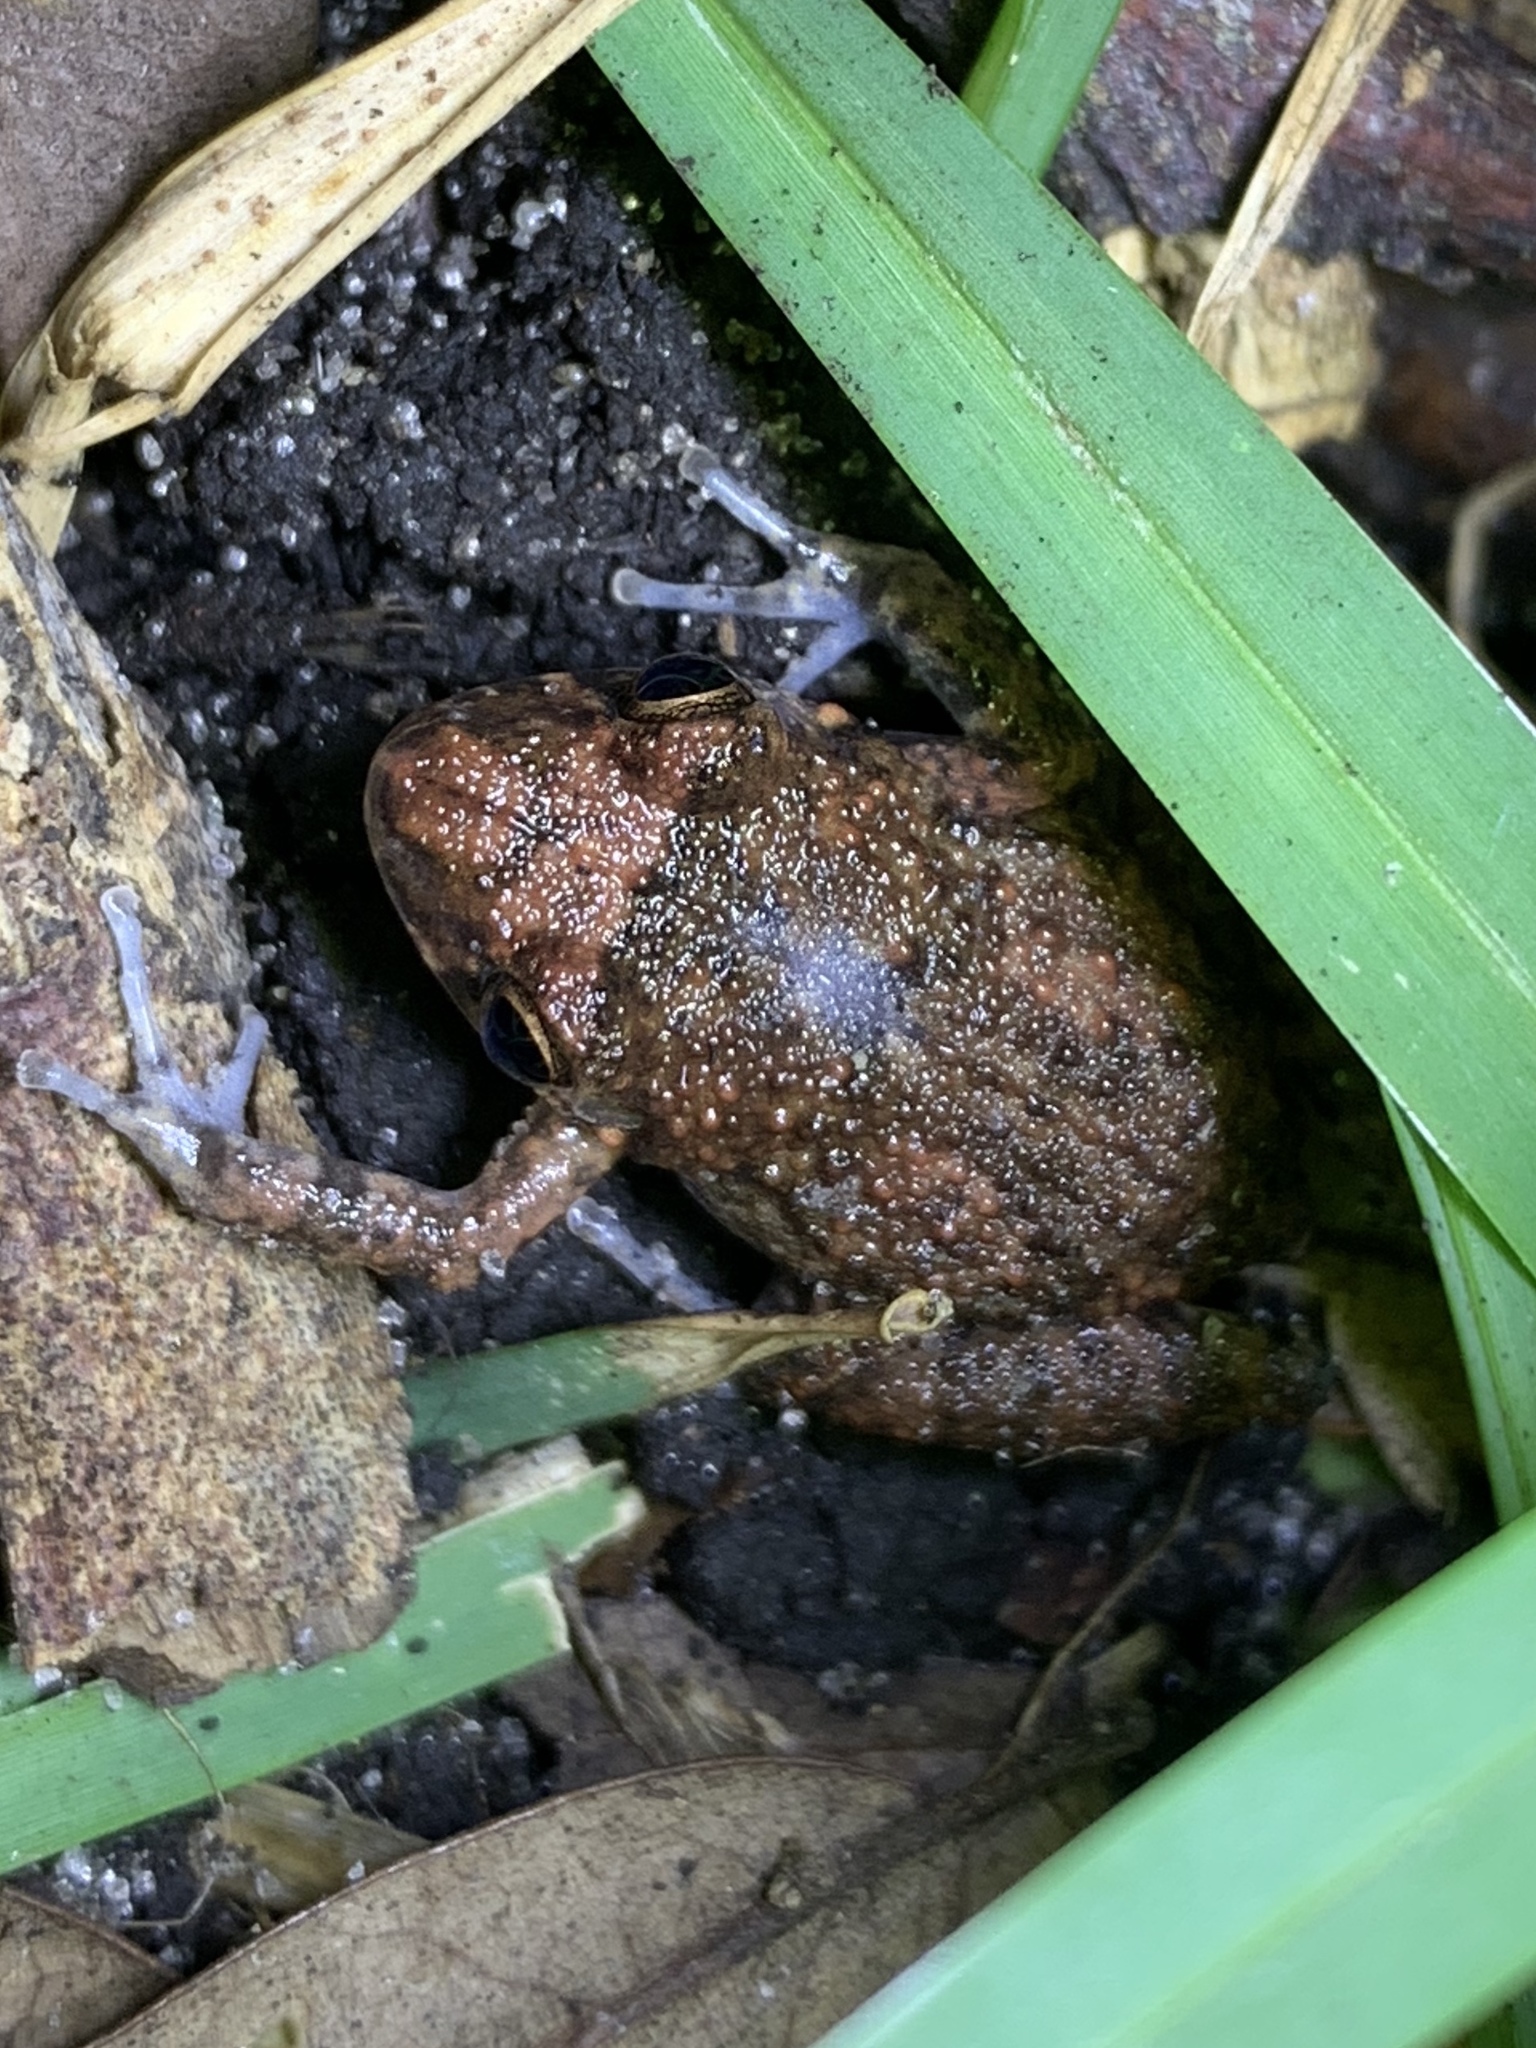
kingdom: Animalia
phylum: Chordata
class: Amphibia
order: Anura
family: Eleutherodactylidae
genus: Eleutherodactylus
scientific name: Eleutherodactylus planirostris
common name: Greenhouse frog
